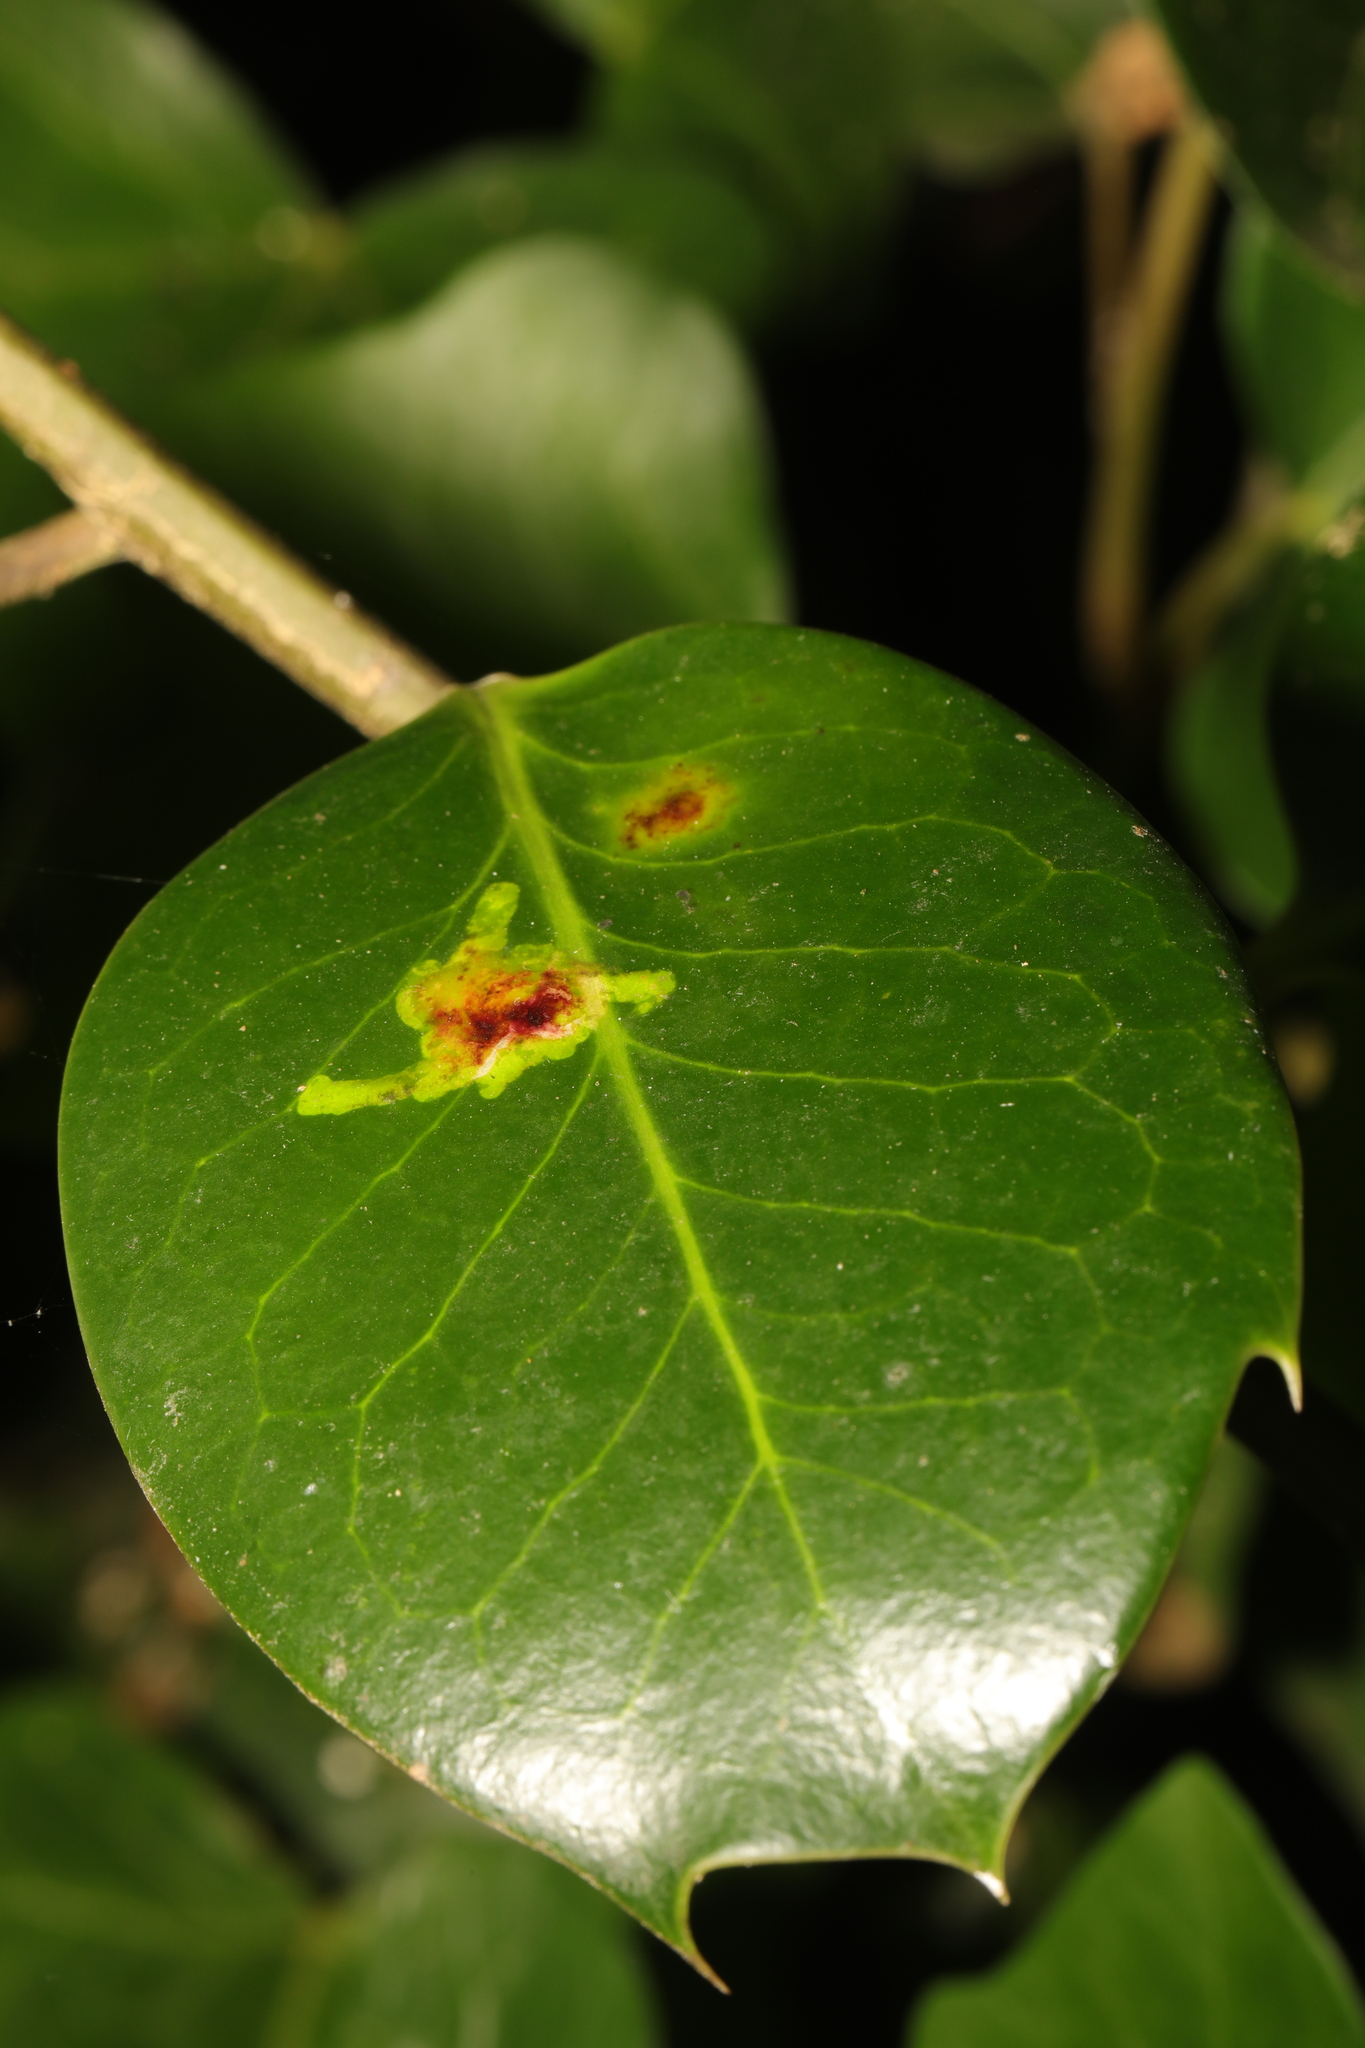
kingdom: Animalia
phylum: Arthropoda
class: Insecta
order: Diptera
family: Agromyzidae
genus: Phytomyza
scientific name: Phytomyza ilicis
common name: Holly leafminer
